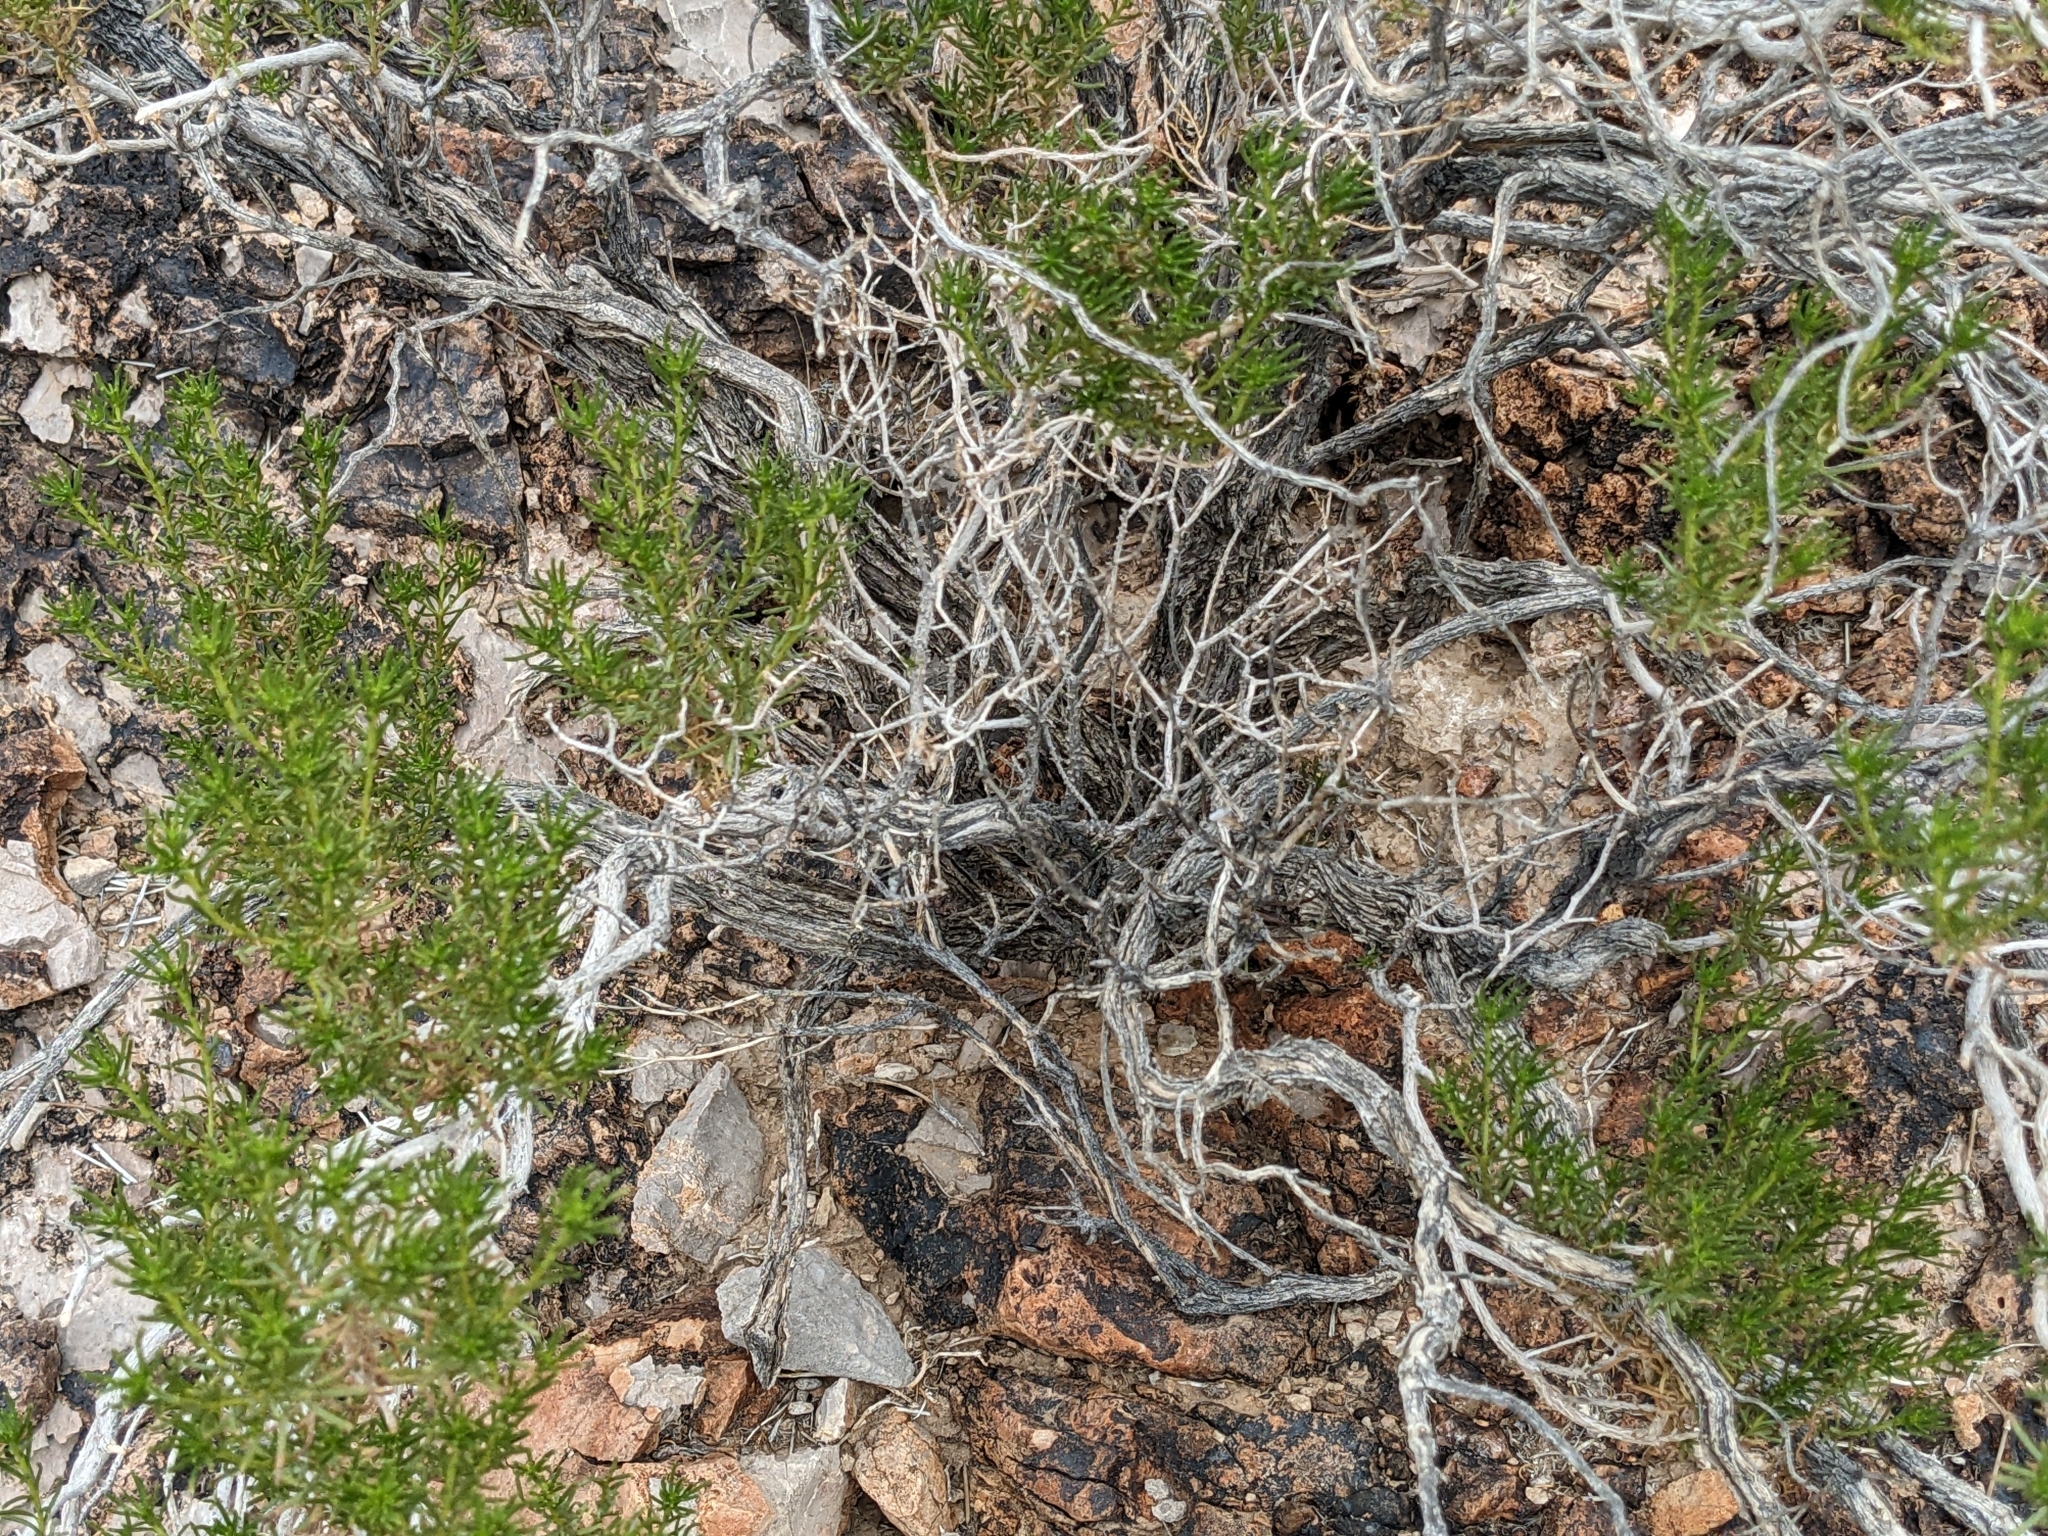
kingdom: Plantae
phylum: Tracheophyta
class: Magnoliopsida
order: Asterales
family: Asteraceae
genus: Peucephyllum
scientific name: Peucephyllum schottii
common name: Pygmy-cedar
